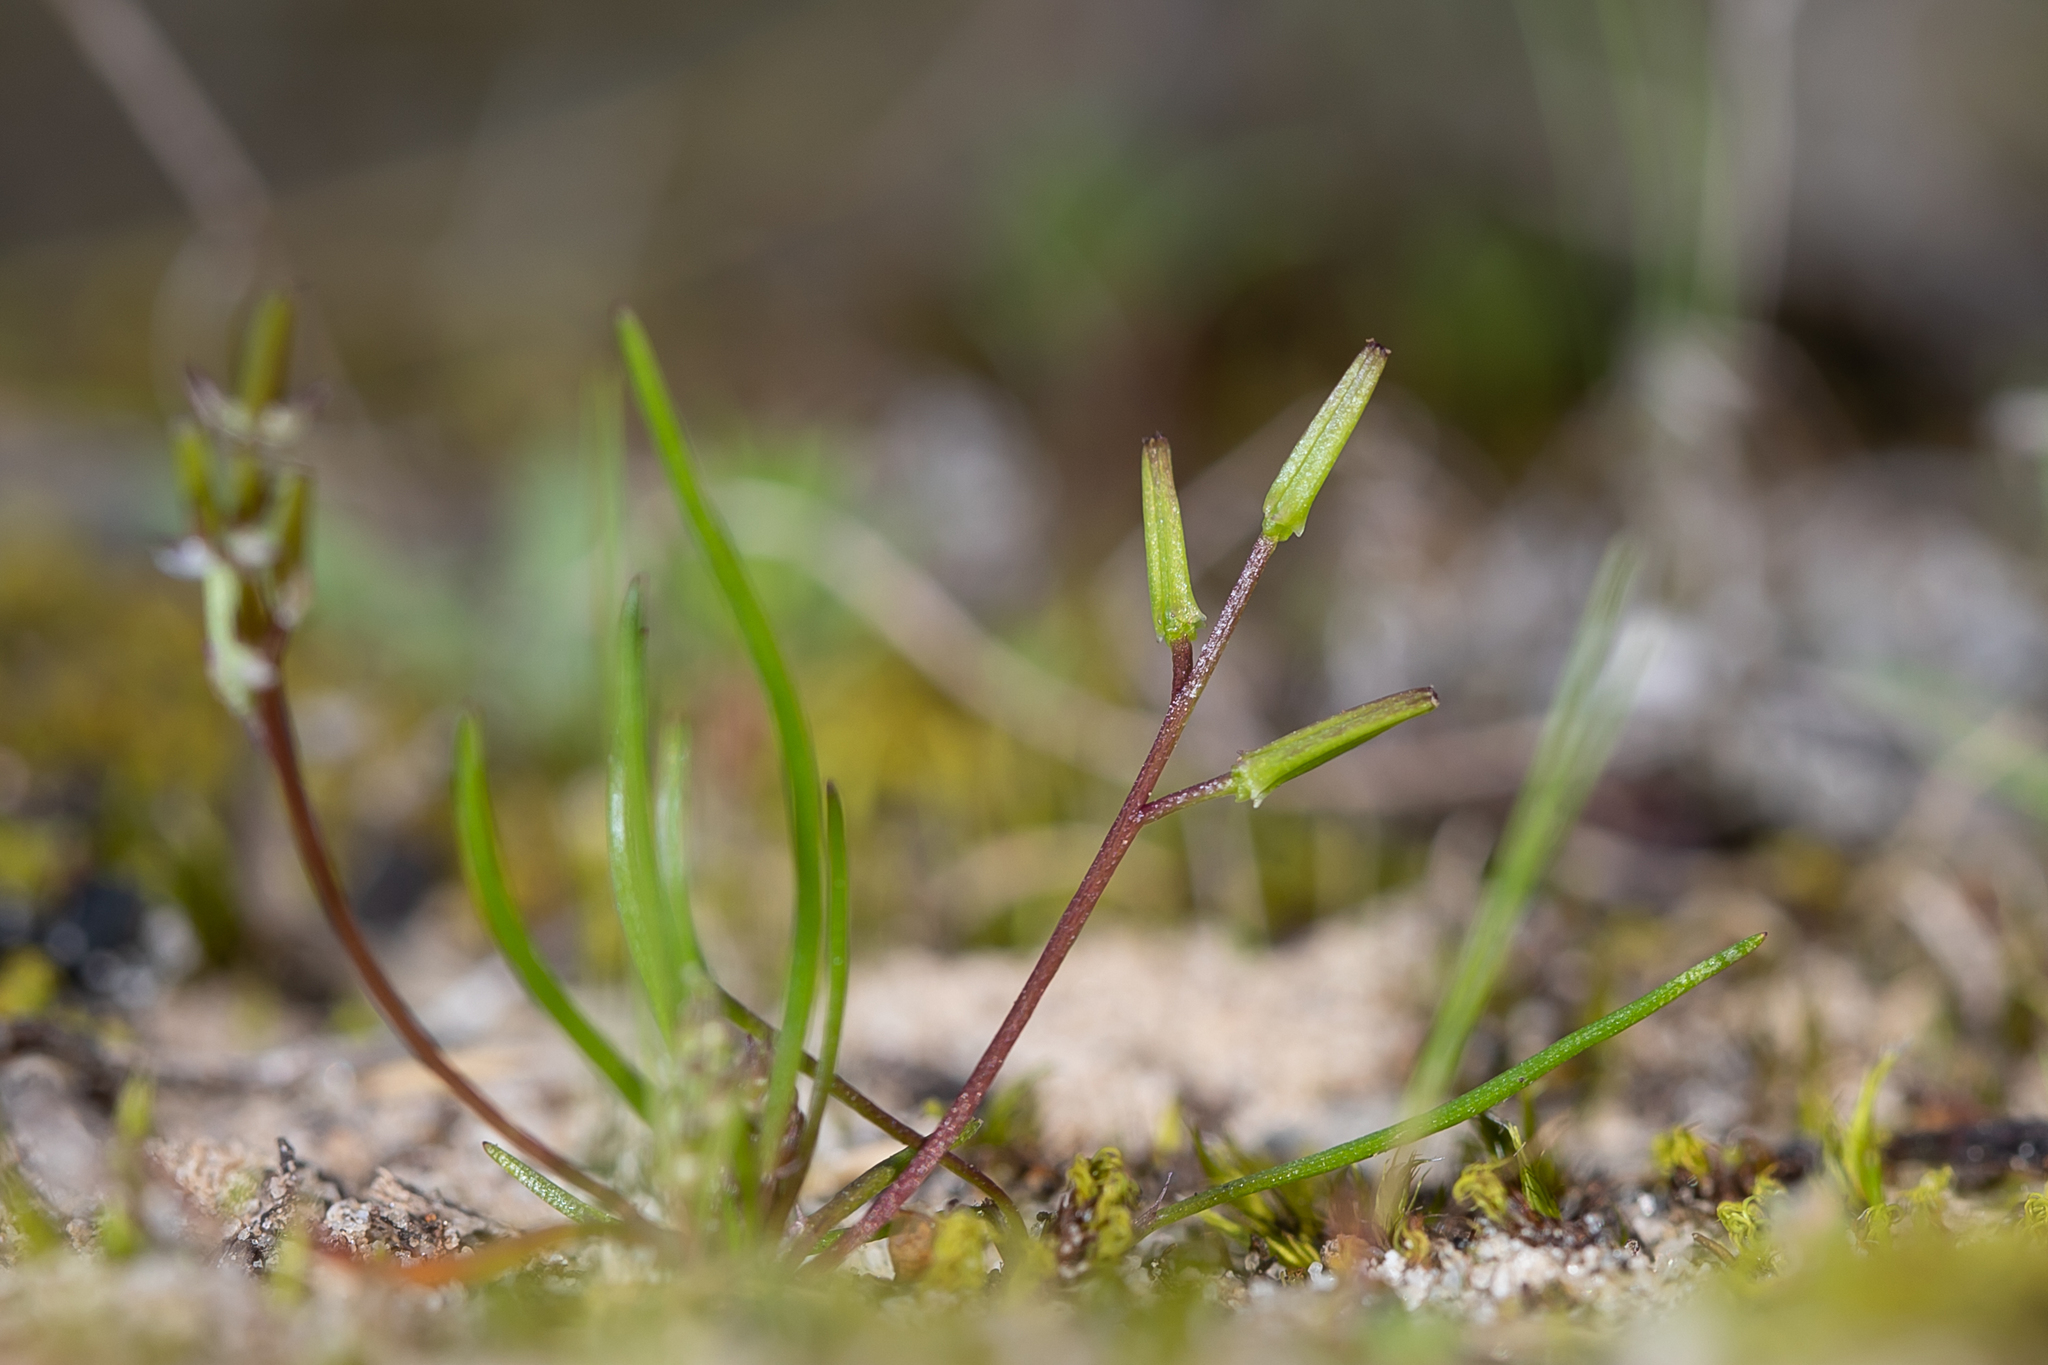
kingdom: Plantae
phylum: Tracheophyta
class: Liliopsida
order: Alismatales
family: Juncaginaceae
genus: Triglochin
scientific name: Triglochin nana
